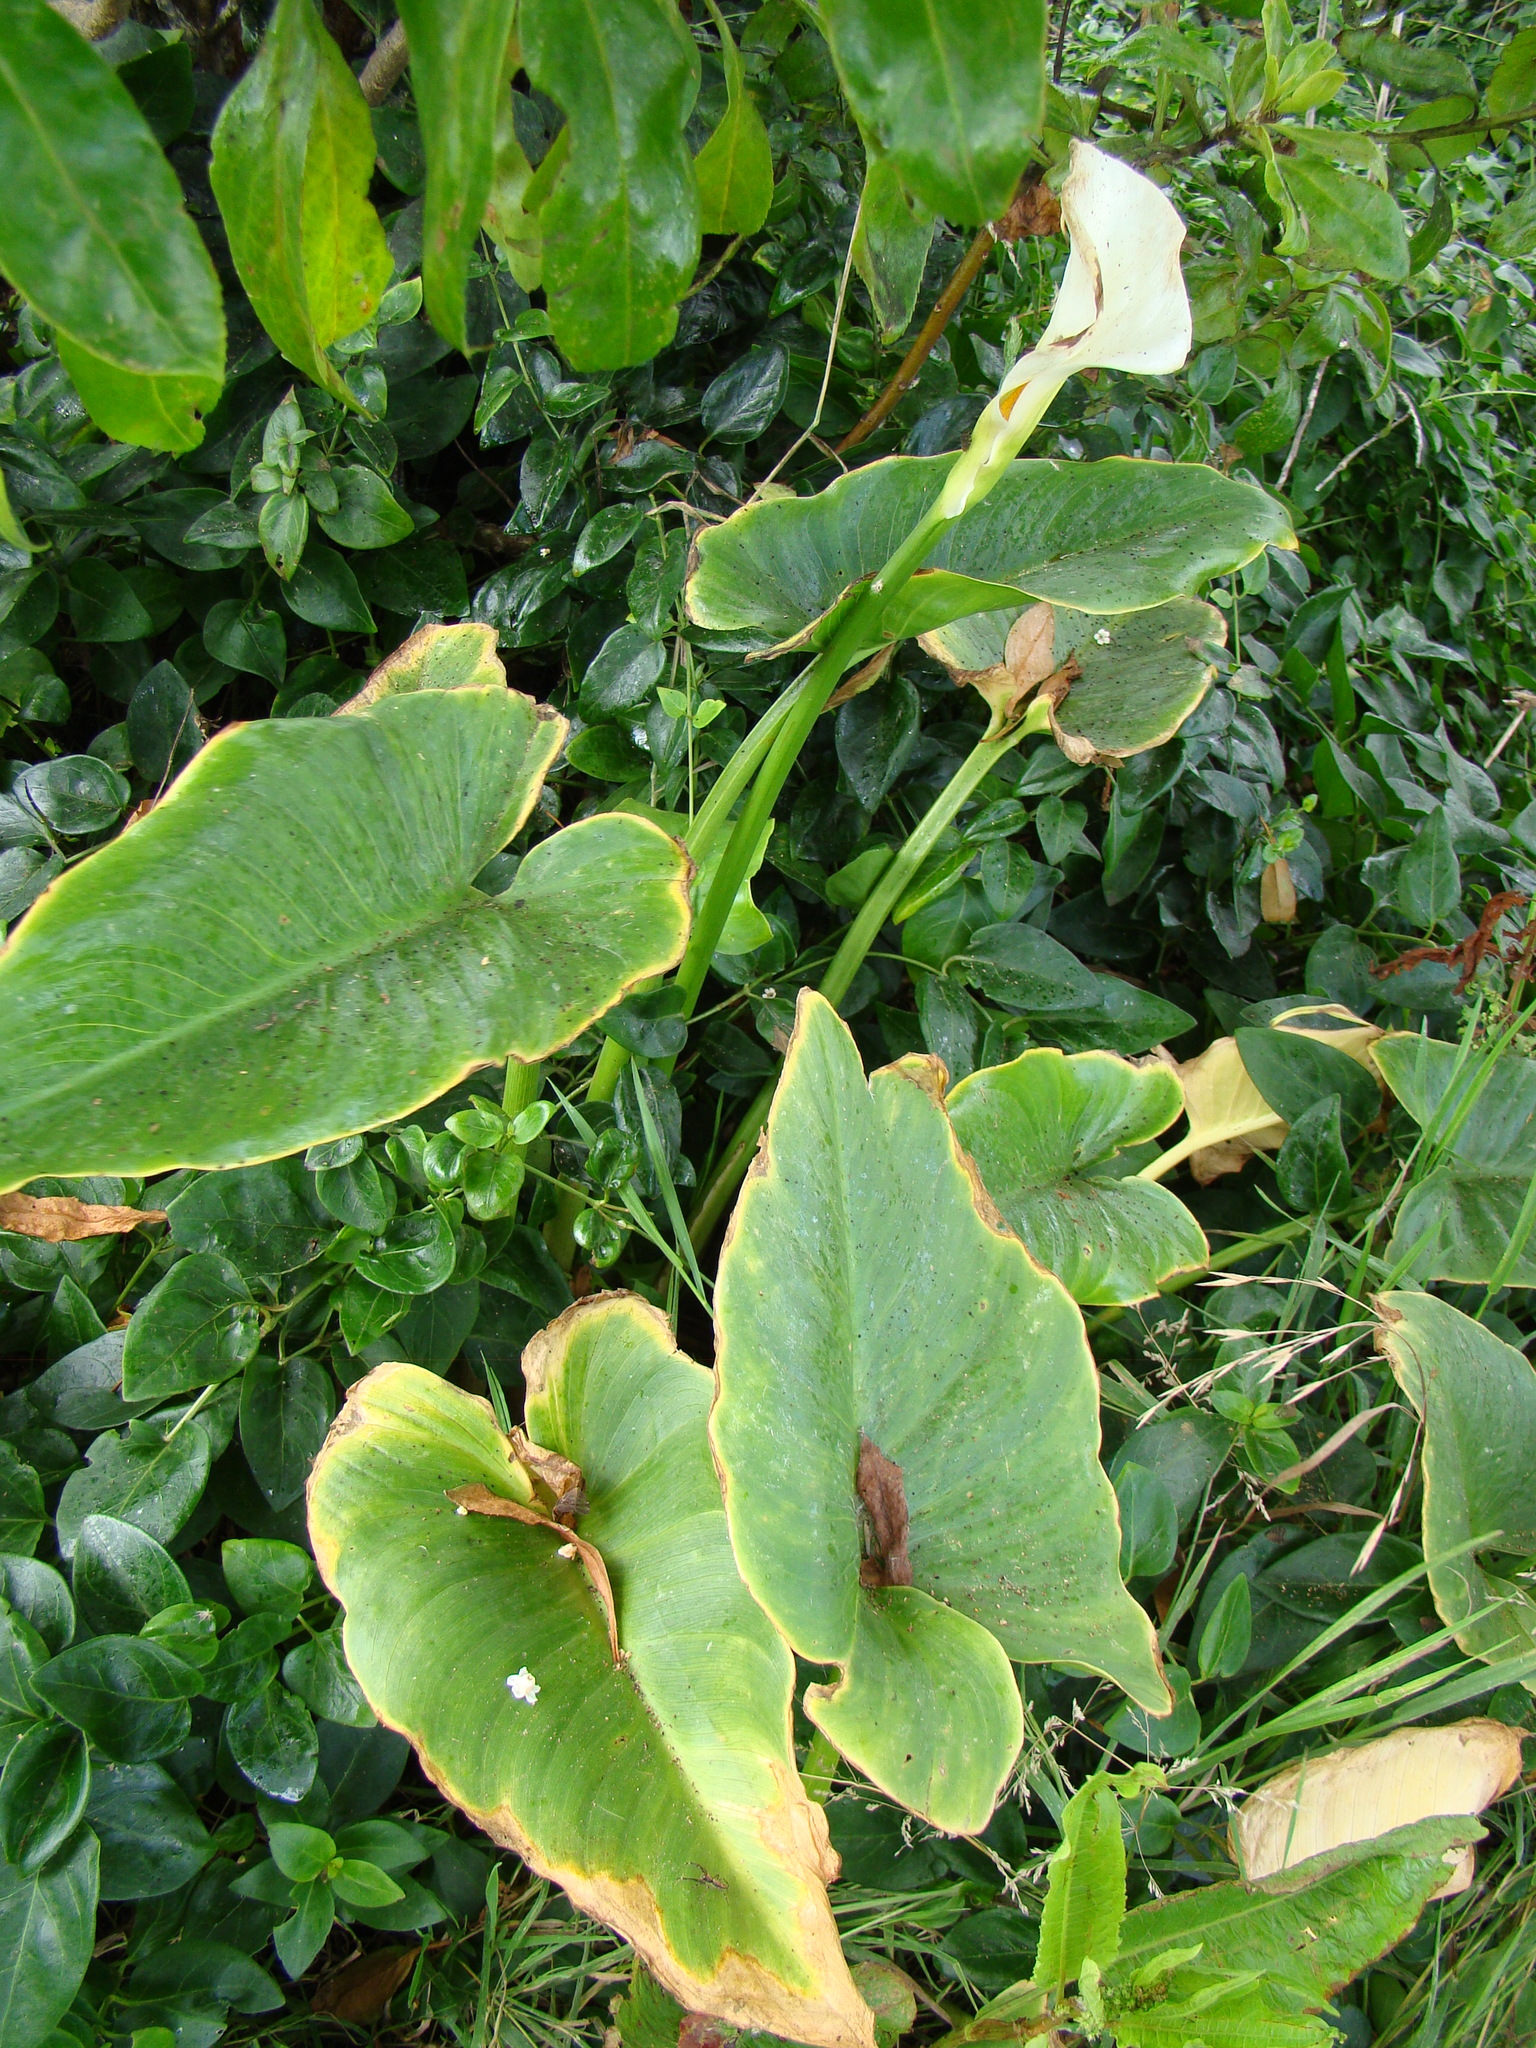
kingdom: Plantae
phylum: Tracheophyta
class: Liliopsida
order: Alismatales
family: Araceae
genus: Zantedeschia
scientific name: Zantedeschia aethiopica
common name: Altar-lily
